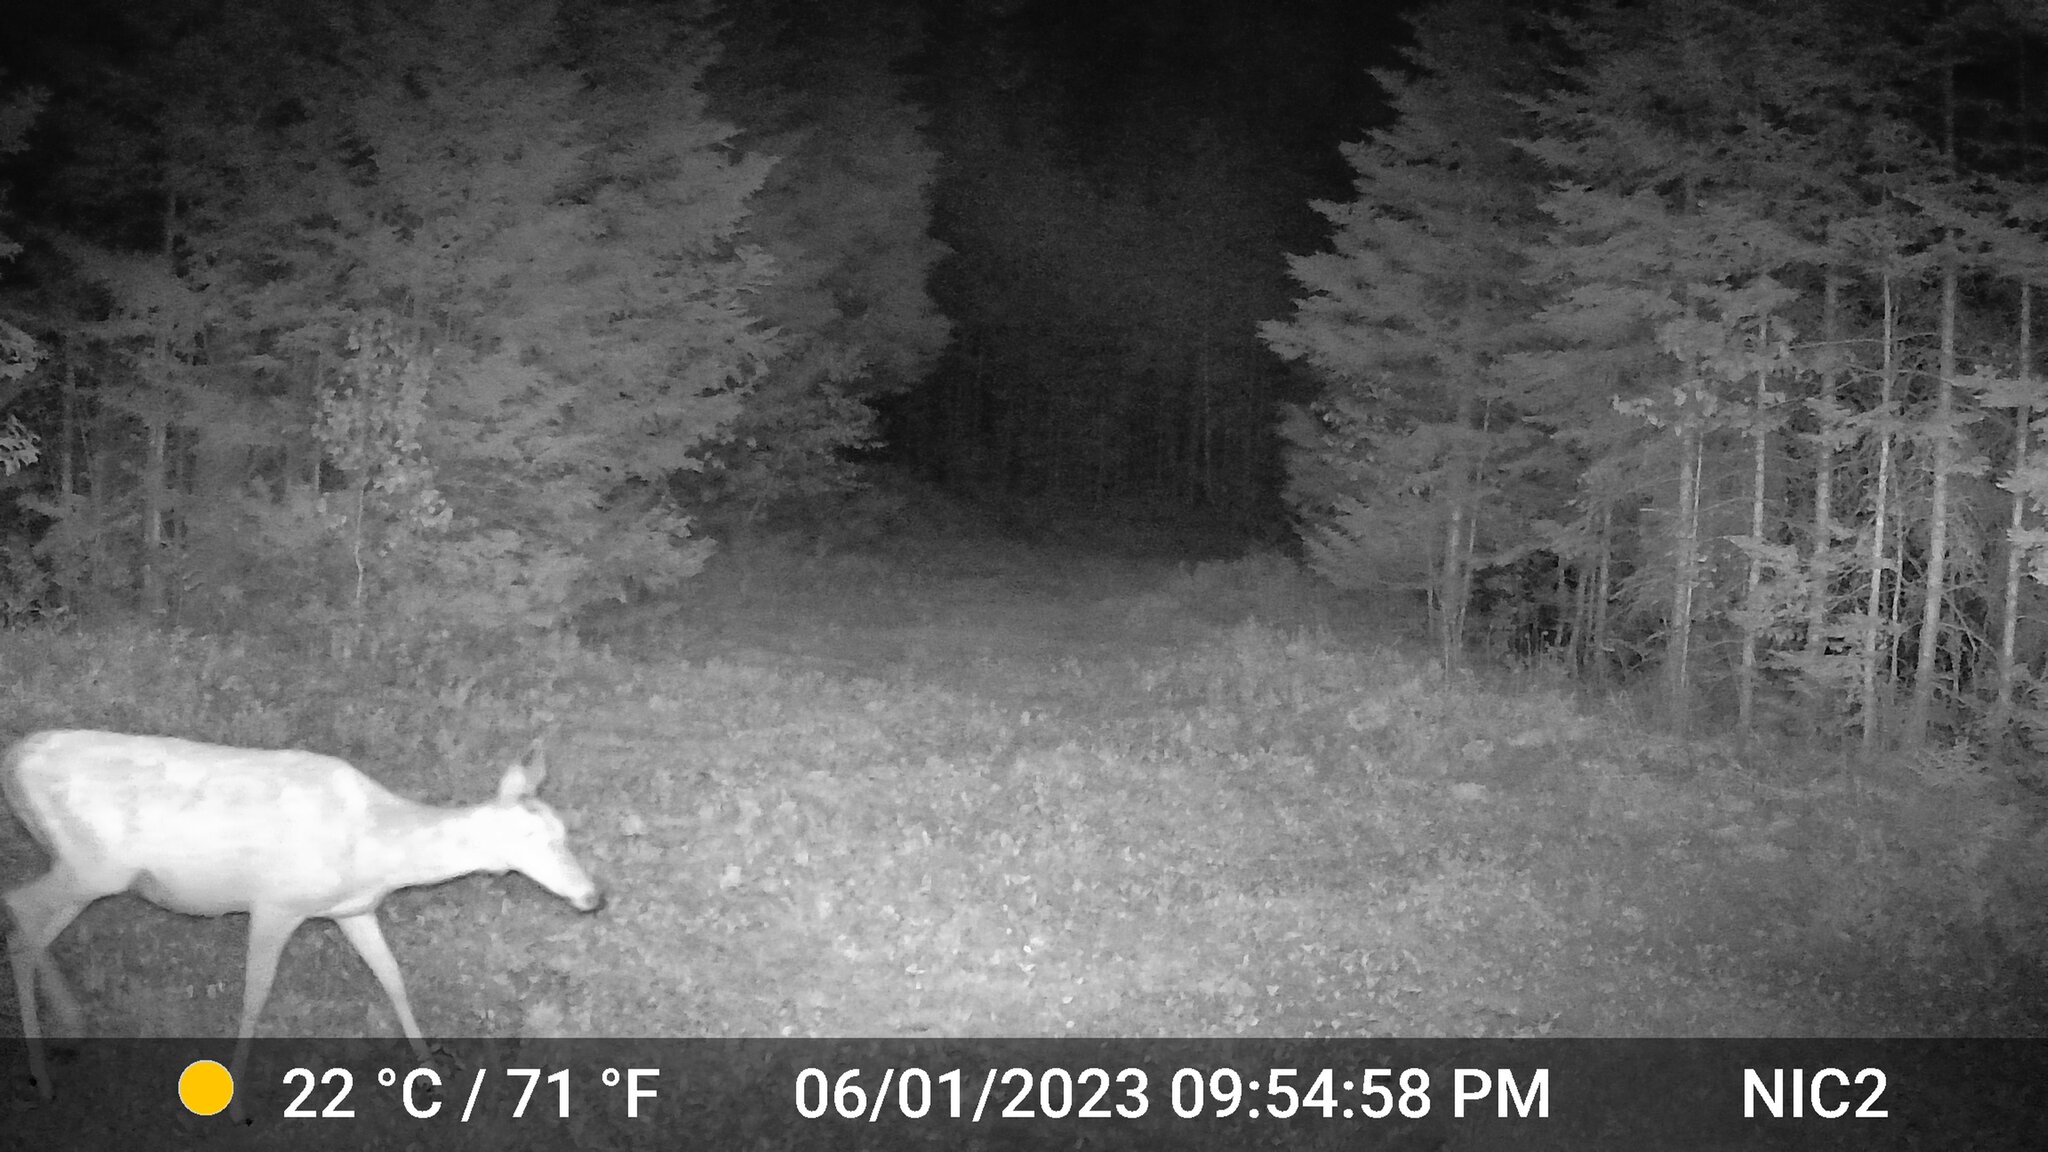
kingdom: Animalia
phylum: Chordata
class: Mammalia
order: Artiodactyla
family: Cervidae
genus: Odocoileus
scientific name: Odocoileus virginianus
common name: White-tailed deer
